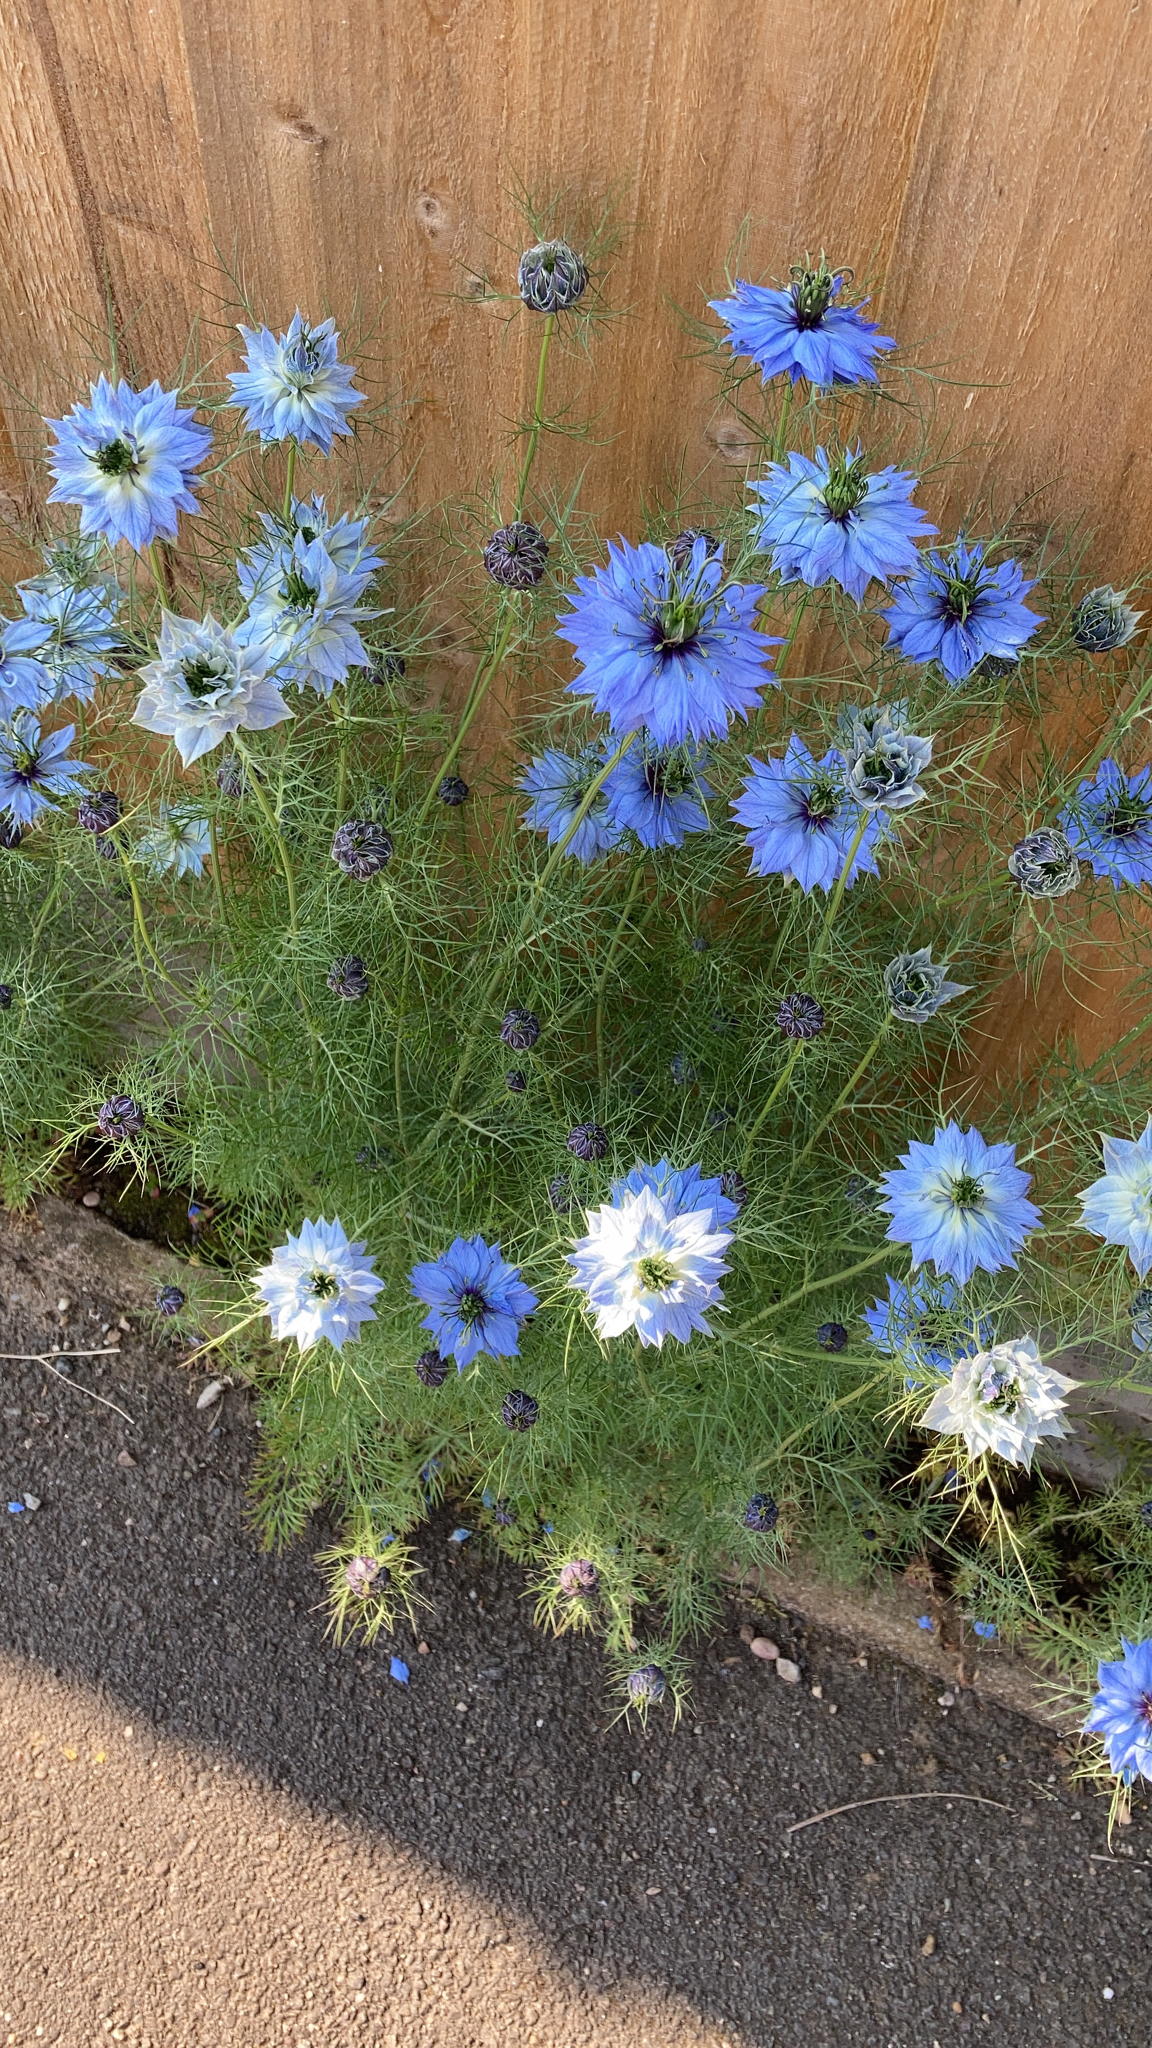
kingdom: Plantae
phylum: Tracheophyta
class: Magnoliopsida
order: Ranunculales
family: Ranunculaceae
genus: Nigella
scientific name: Nigella damascena
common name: Love-in-a-mist
